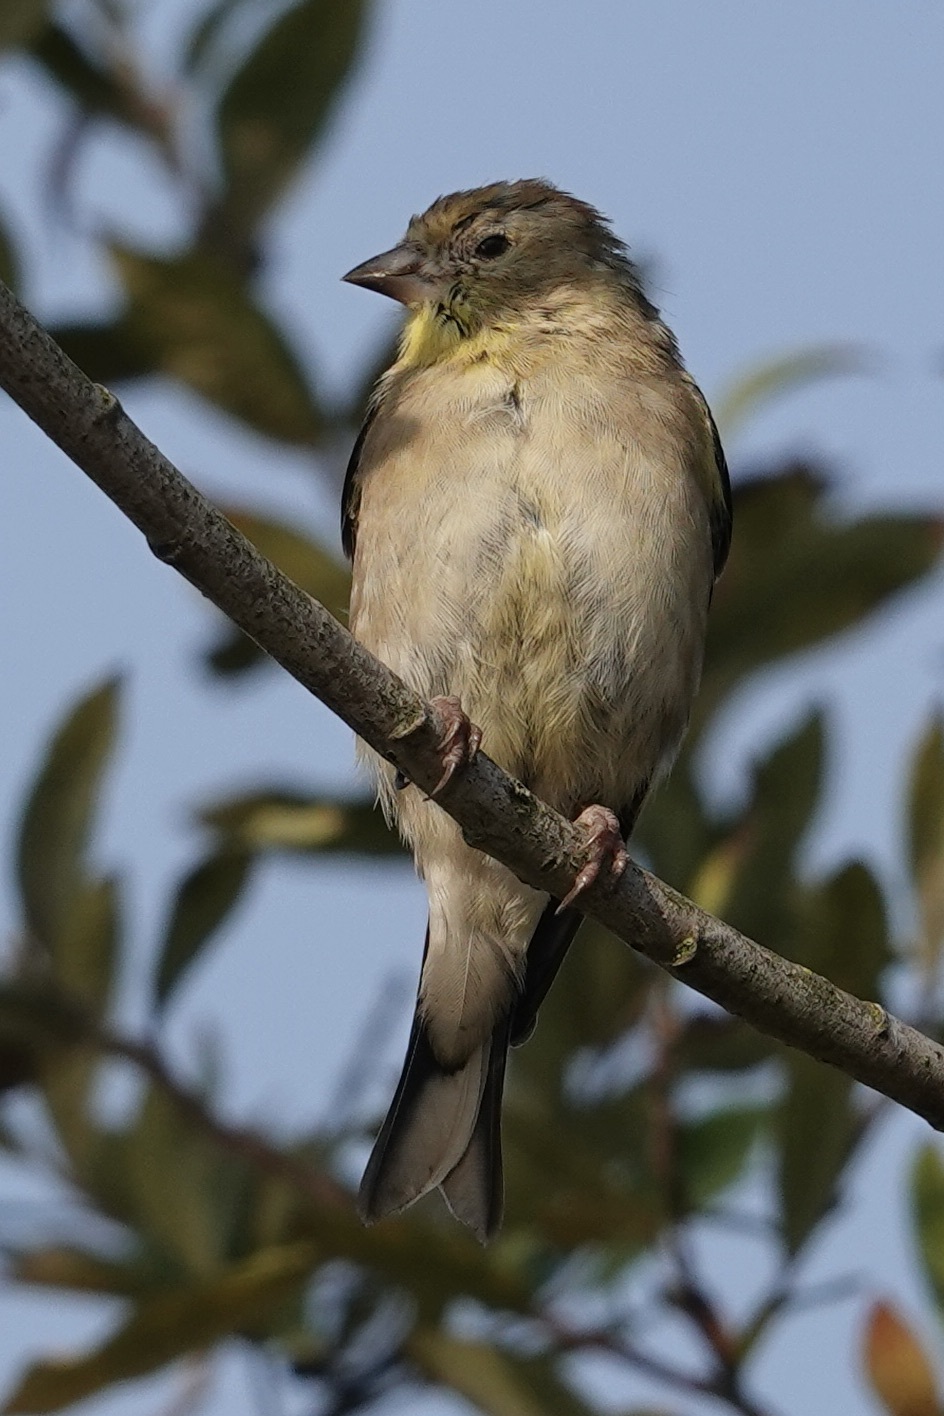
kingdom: Animalia
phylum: Chordata
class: Aves
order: Passeriformes
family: Fringillidae
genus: Spinus
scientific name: Spinus tristis
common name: American goldfinch
